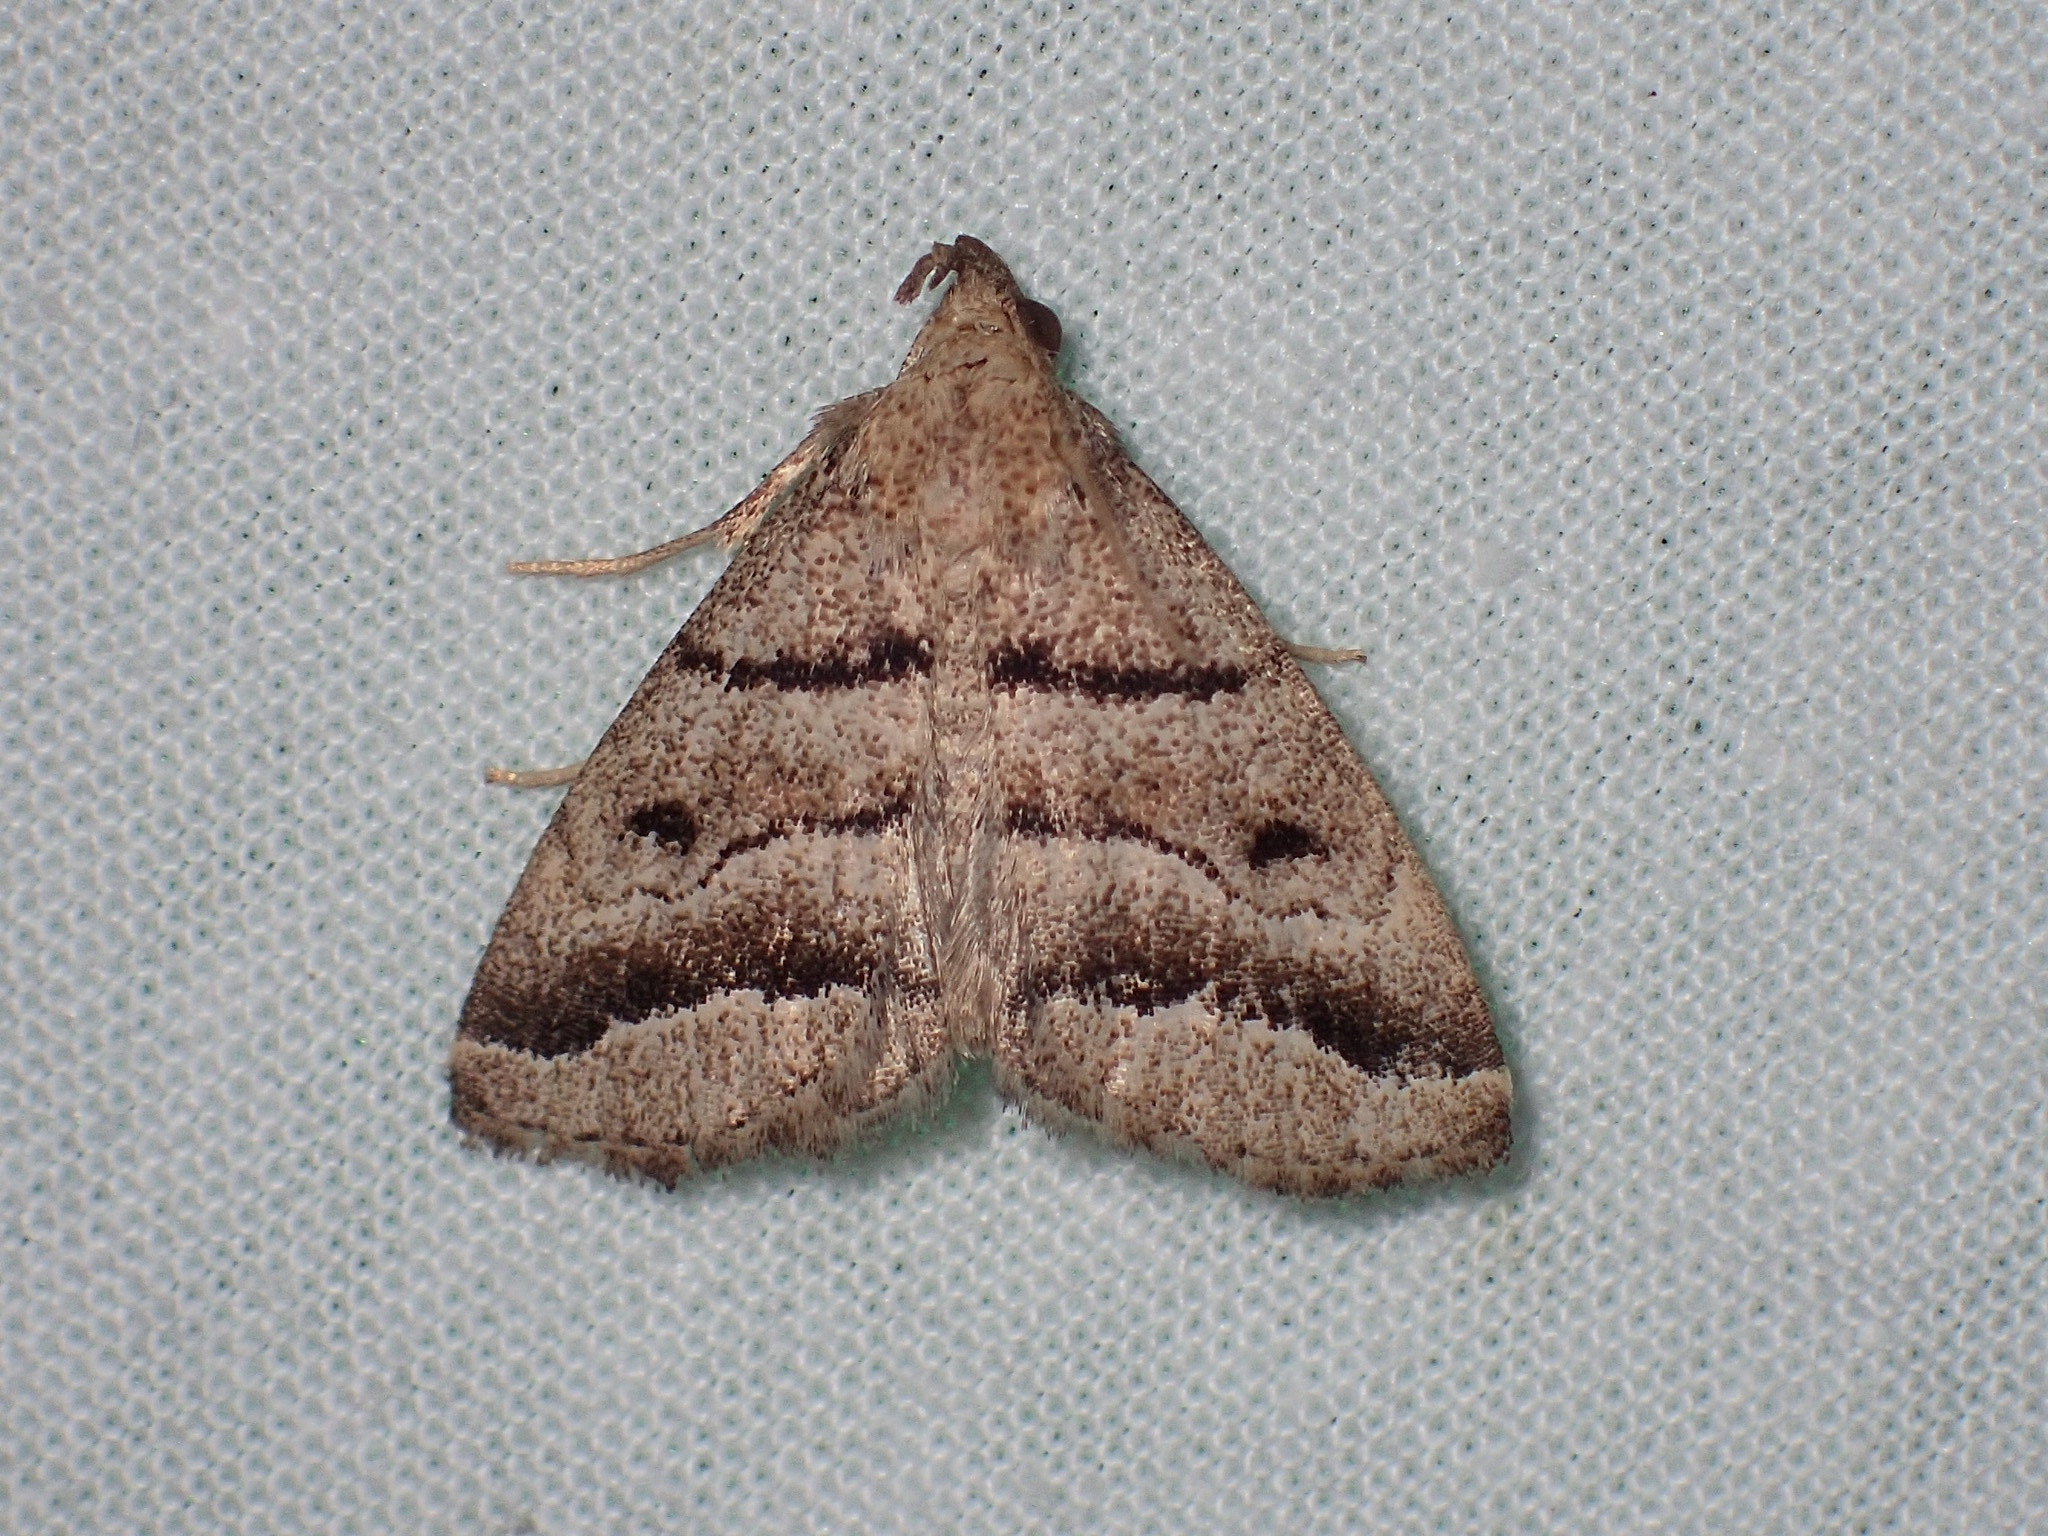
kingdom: Animalia
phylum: Arthropoda
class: Insecta
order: Lepidoptera
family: Erebidae
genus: Zanclognatha
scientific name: Zanclognatha atrilineella
